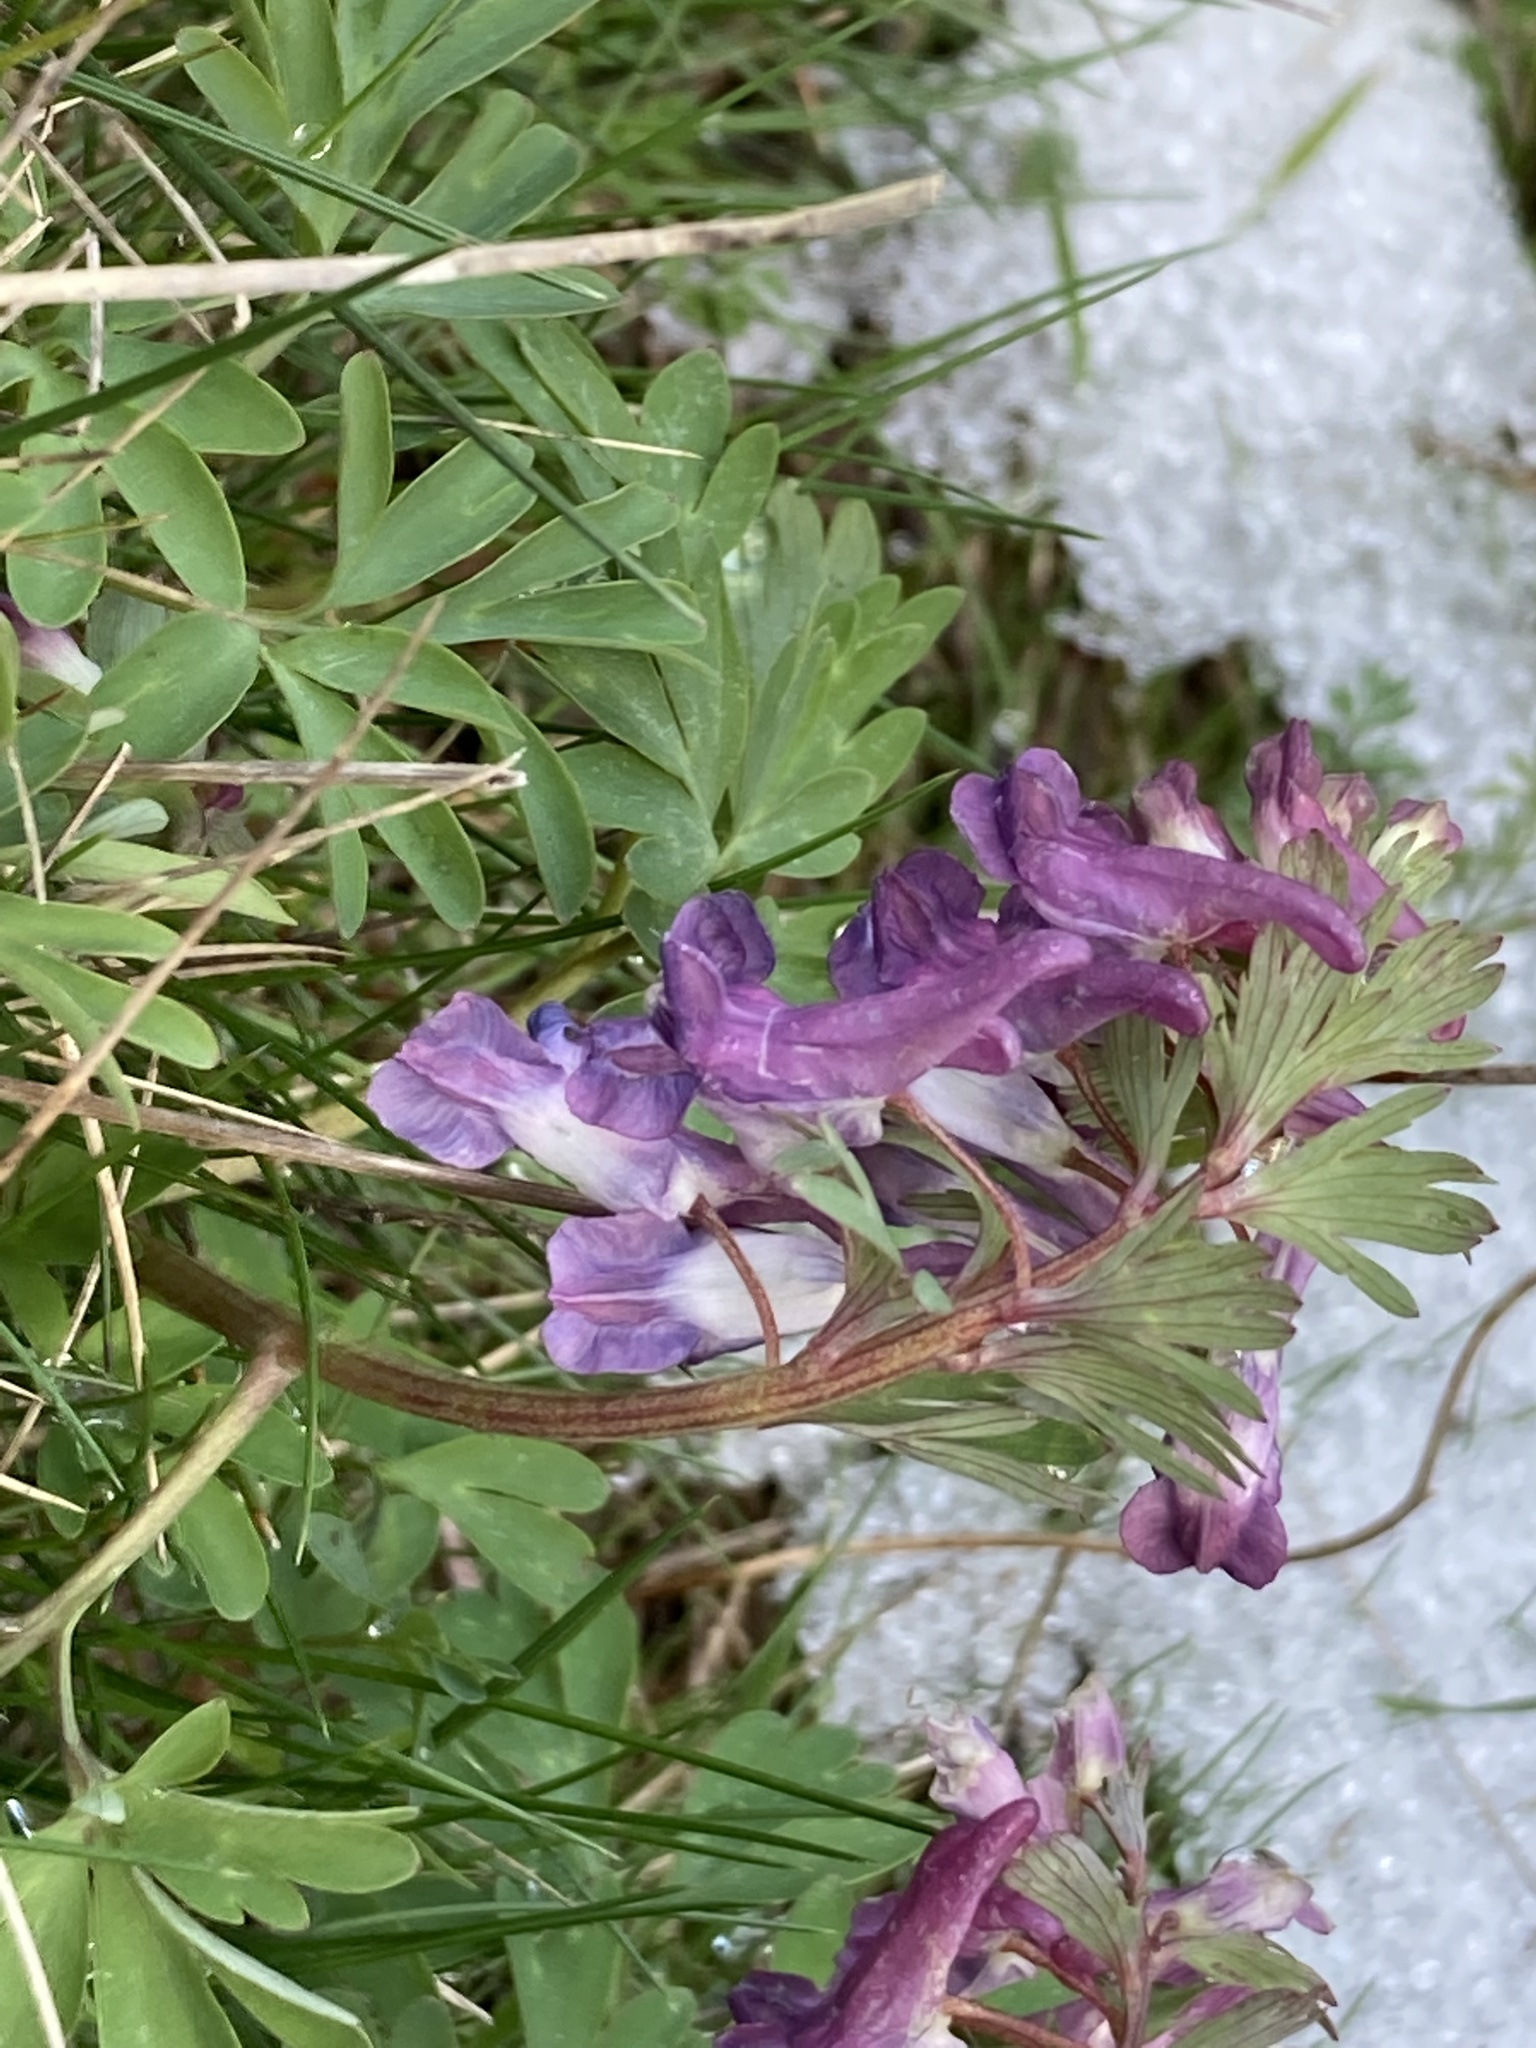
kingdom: Plantae
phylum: Tracheophyta
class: Magnoliopsida
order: Ranunculales
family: Papaveraceae
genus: Corydalis
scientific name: Corydalis solida
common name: Bird-in-a-bush
